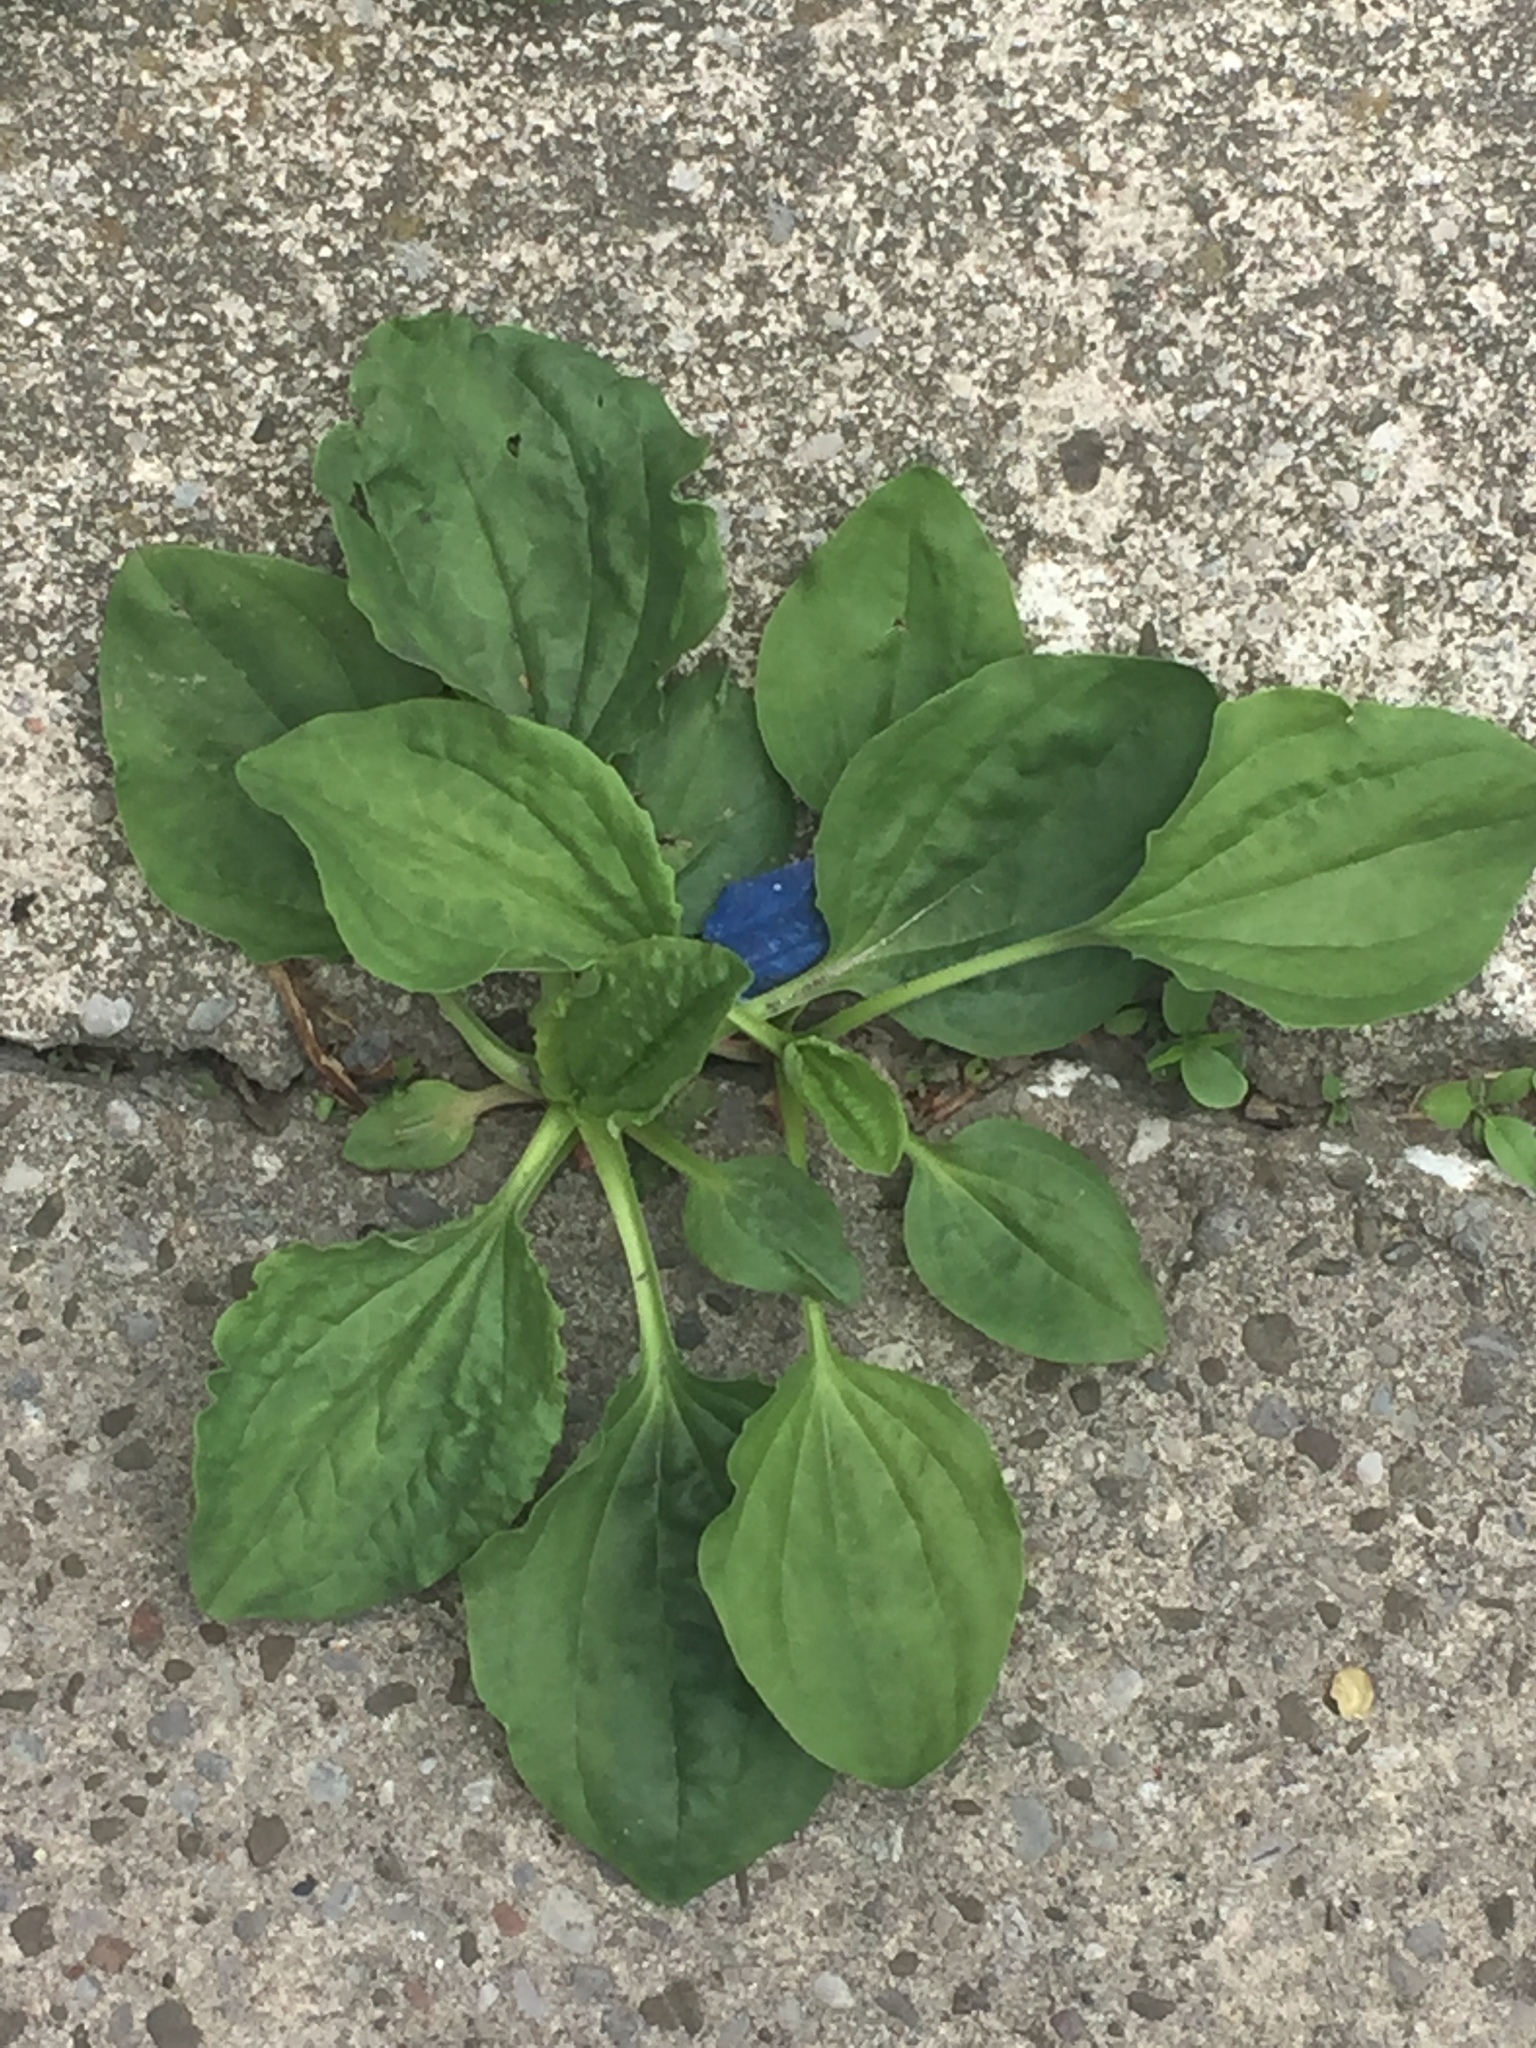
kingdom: Plantae
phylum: Tracheophyta
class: Magnoliopsida
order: Lamiales
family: Plantaginaceae
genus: Plantago
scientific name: Plantago major
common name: Common plantain
